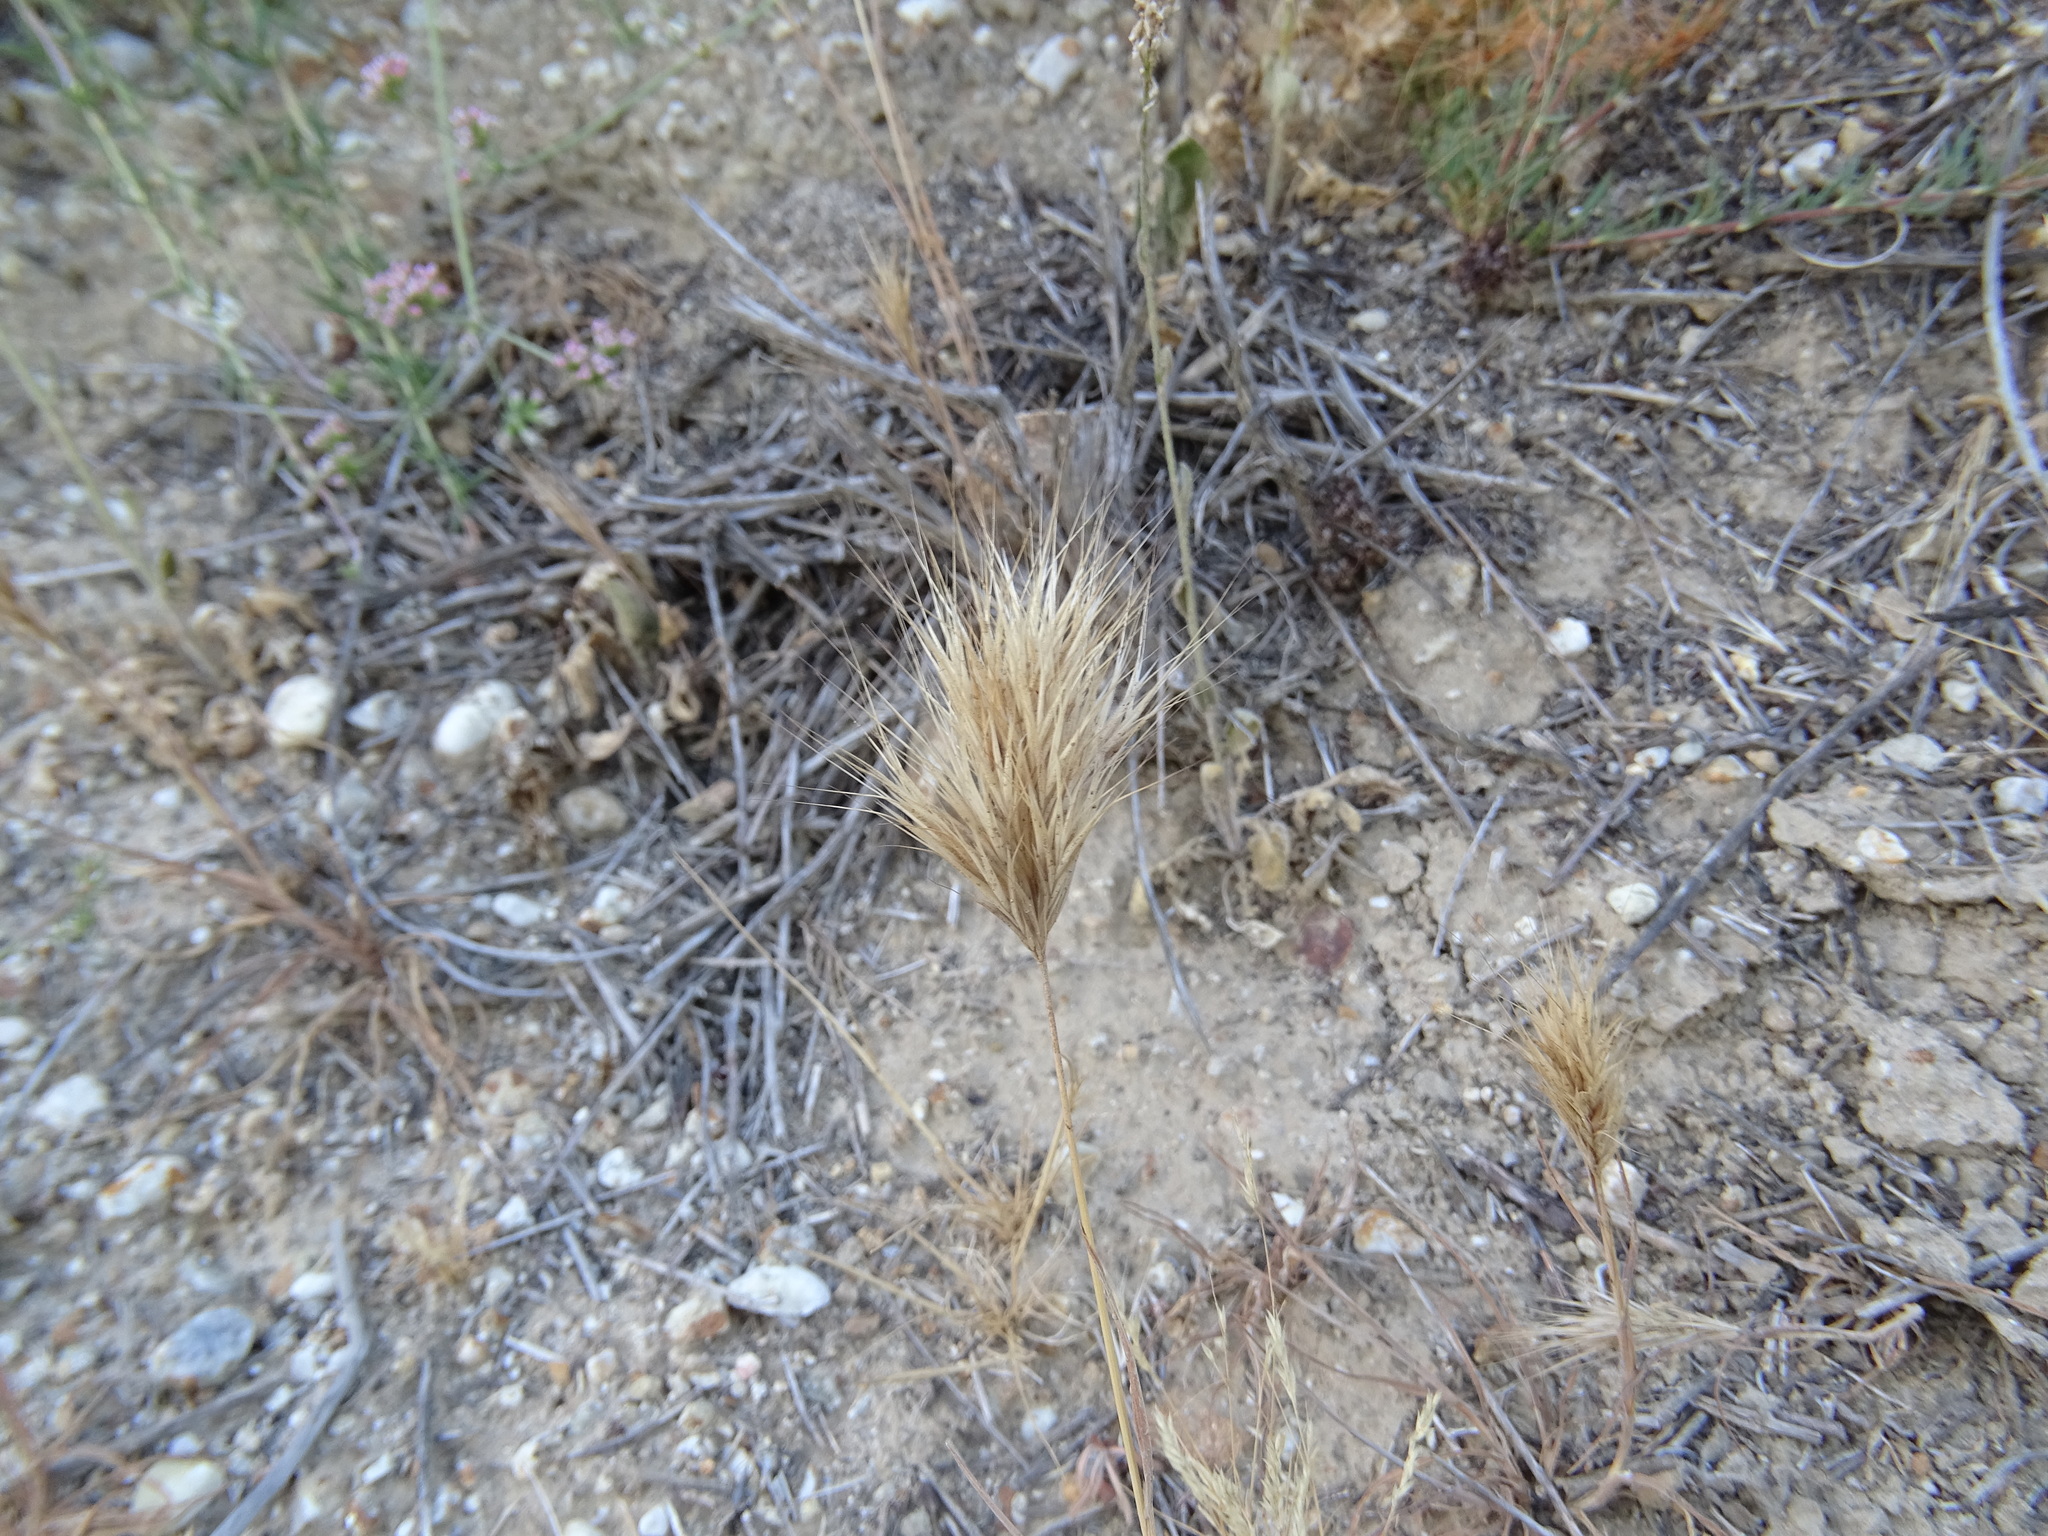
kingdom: Plantae
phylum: Tracheophyta
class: Liliopsida
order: Poales
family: Poaceae
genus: Bromus
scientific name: Bromus madritensis
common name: Compact brome
